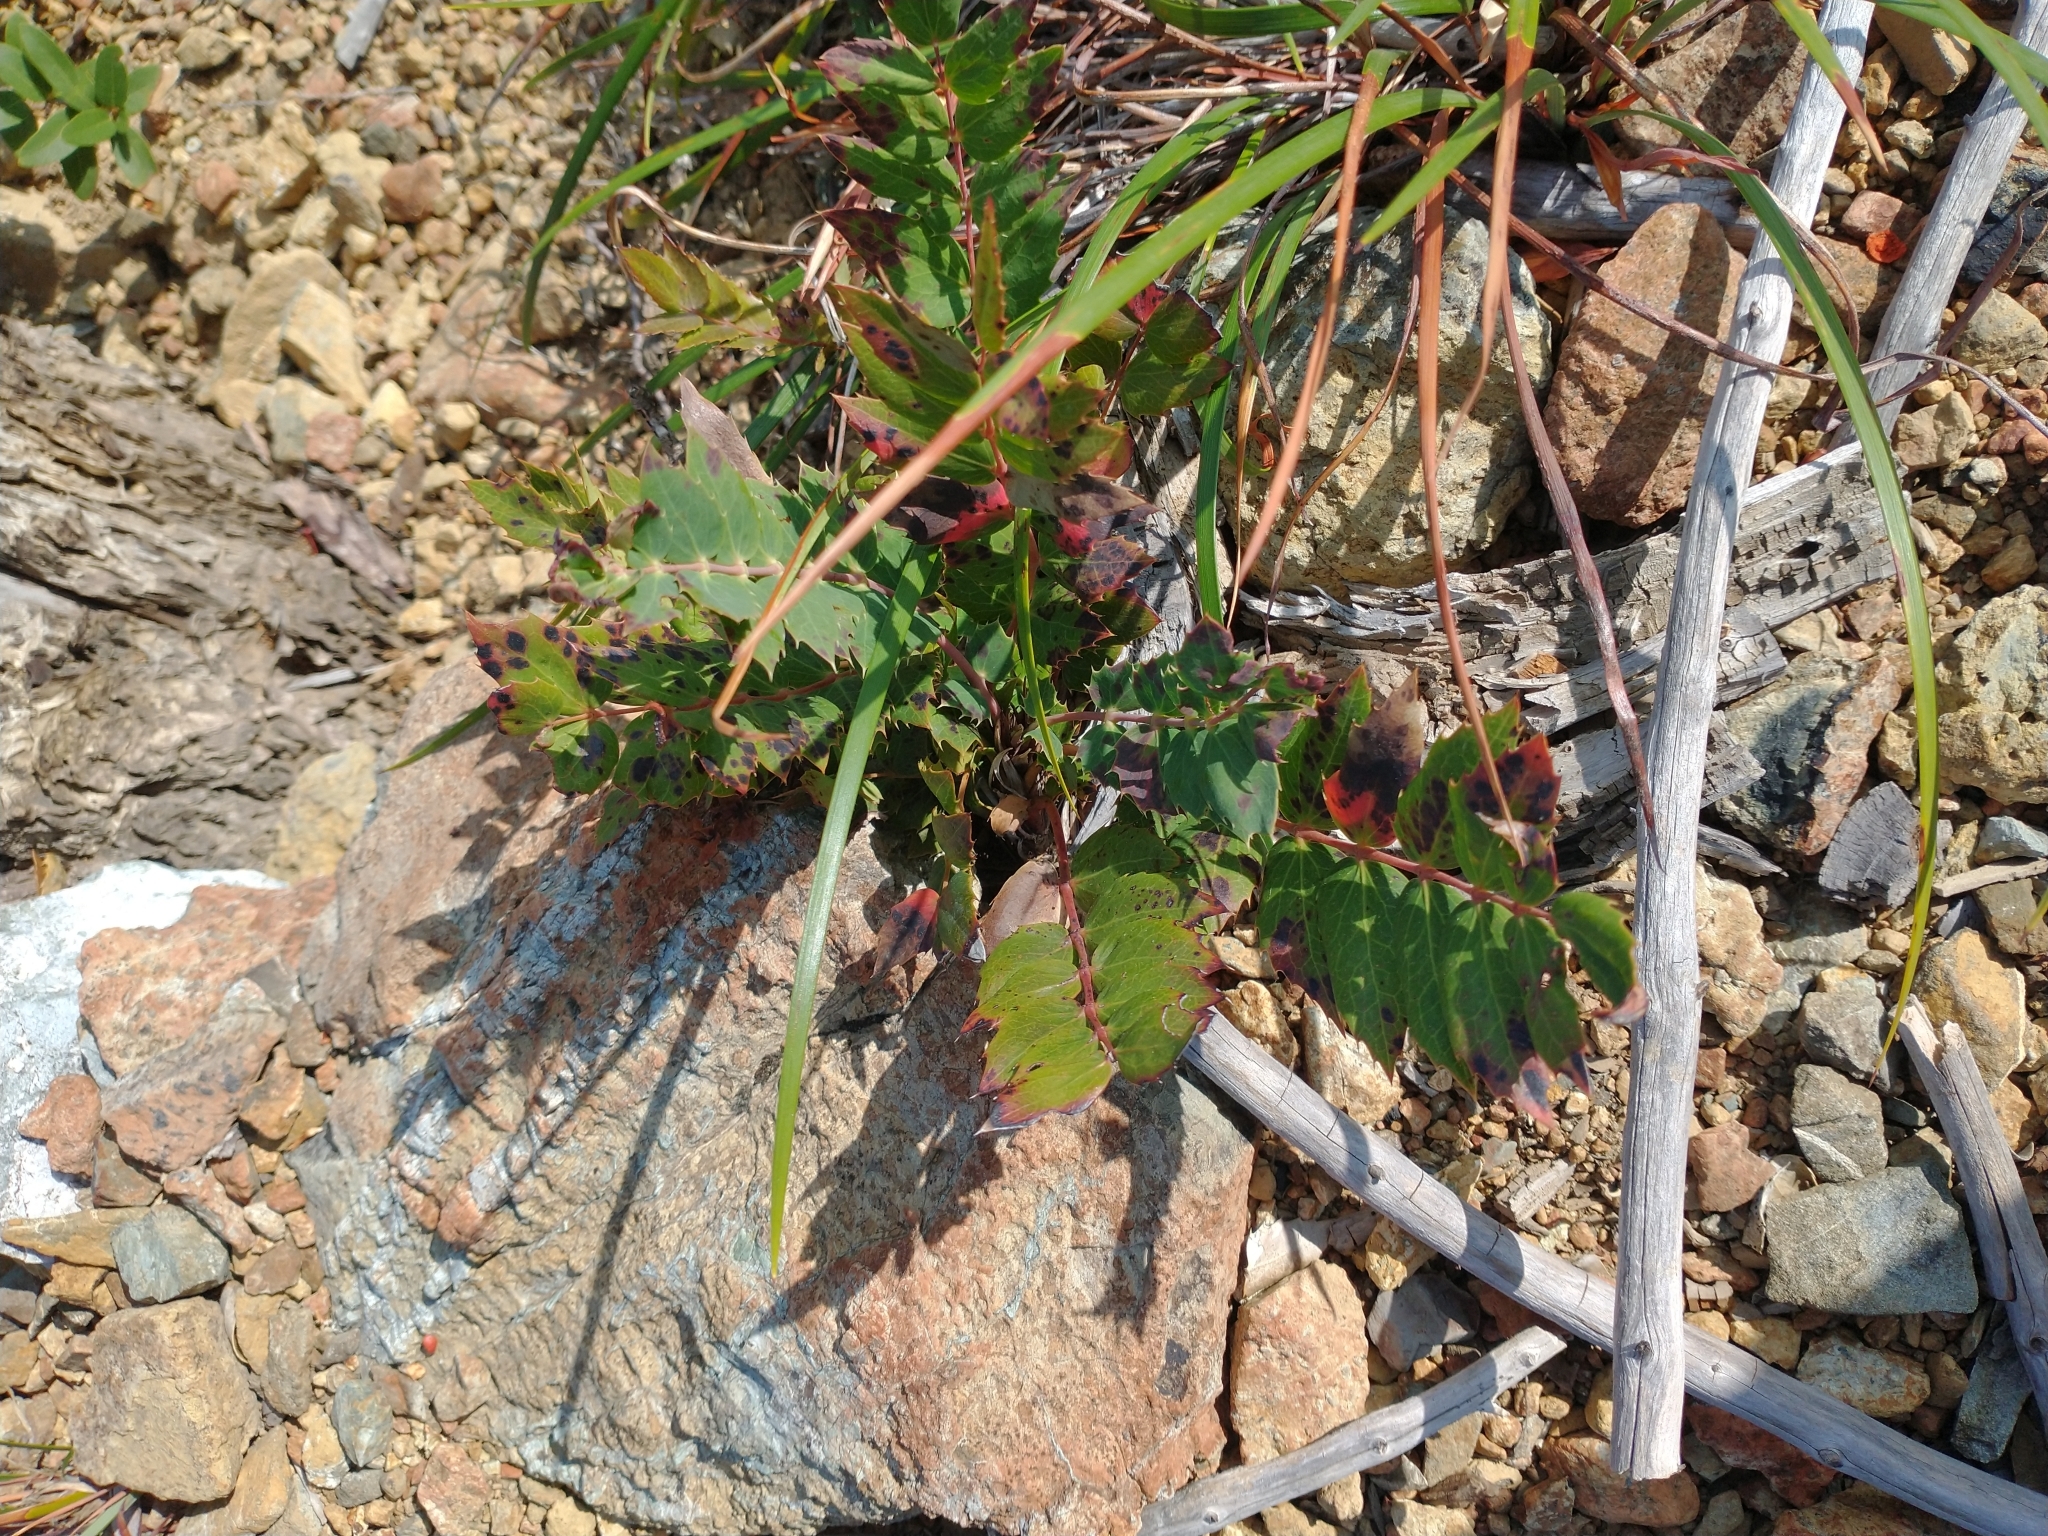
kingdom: Plantae
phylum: Tracheophyta
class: Magnoliopsida
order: Ranunculales
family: Berberidaceae
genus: Mahonia
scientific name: Mahonia nervosa
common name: Cascade oregon-grape
